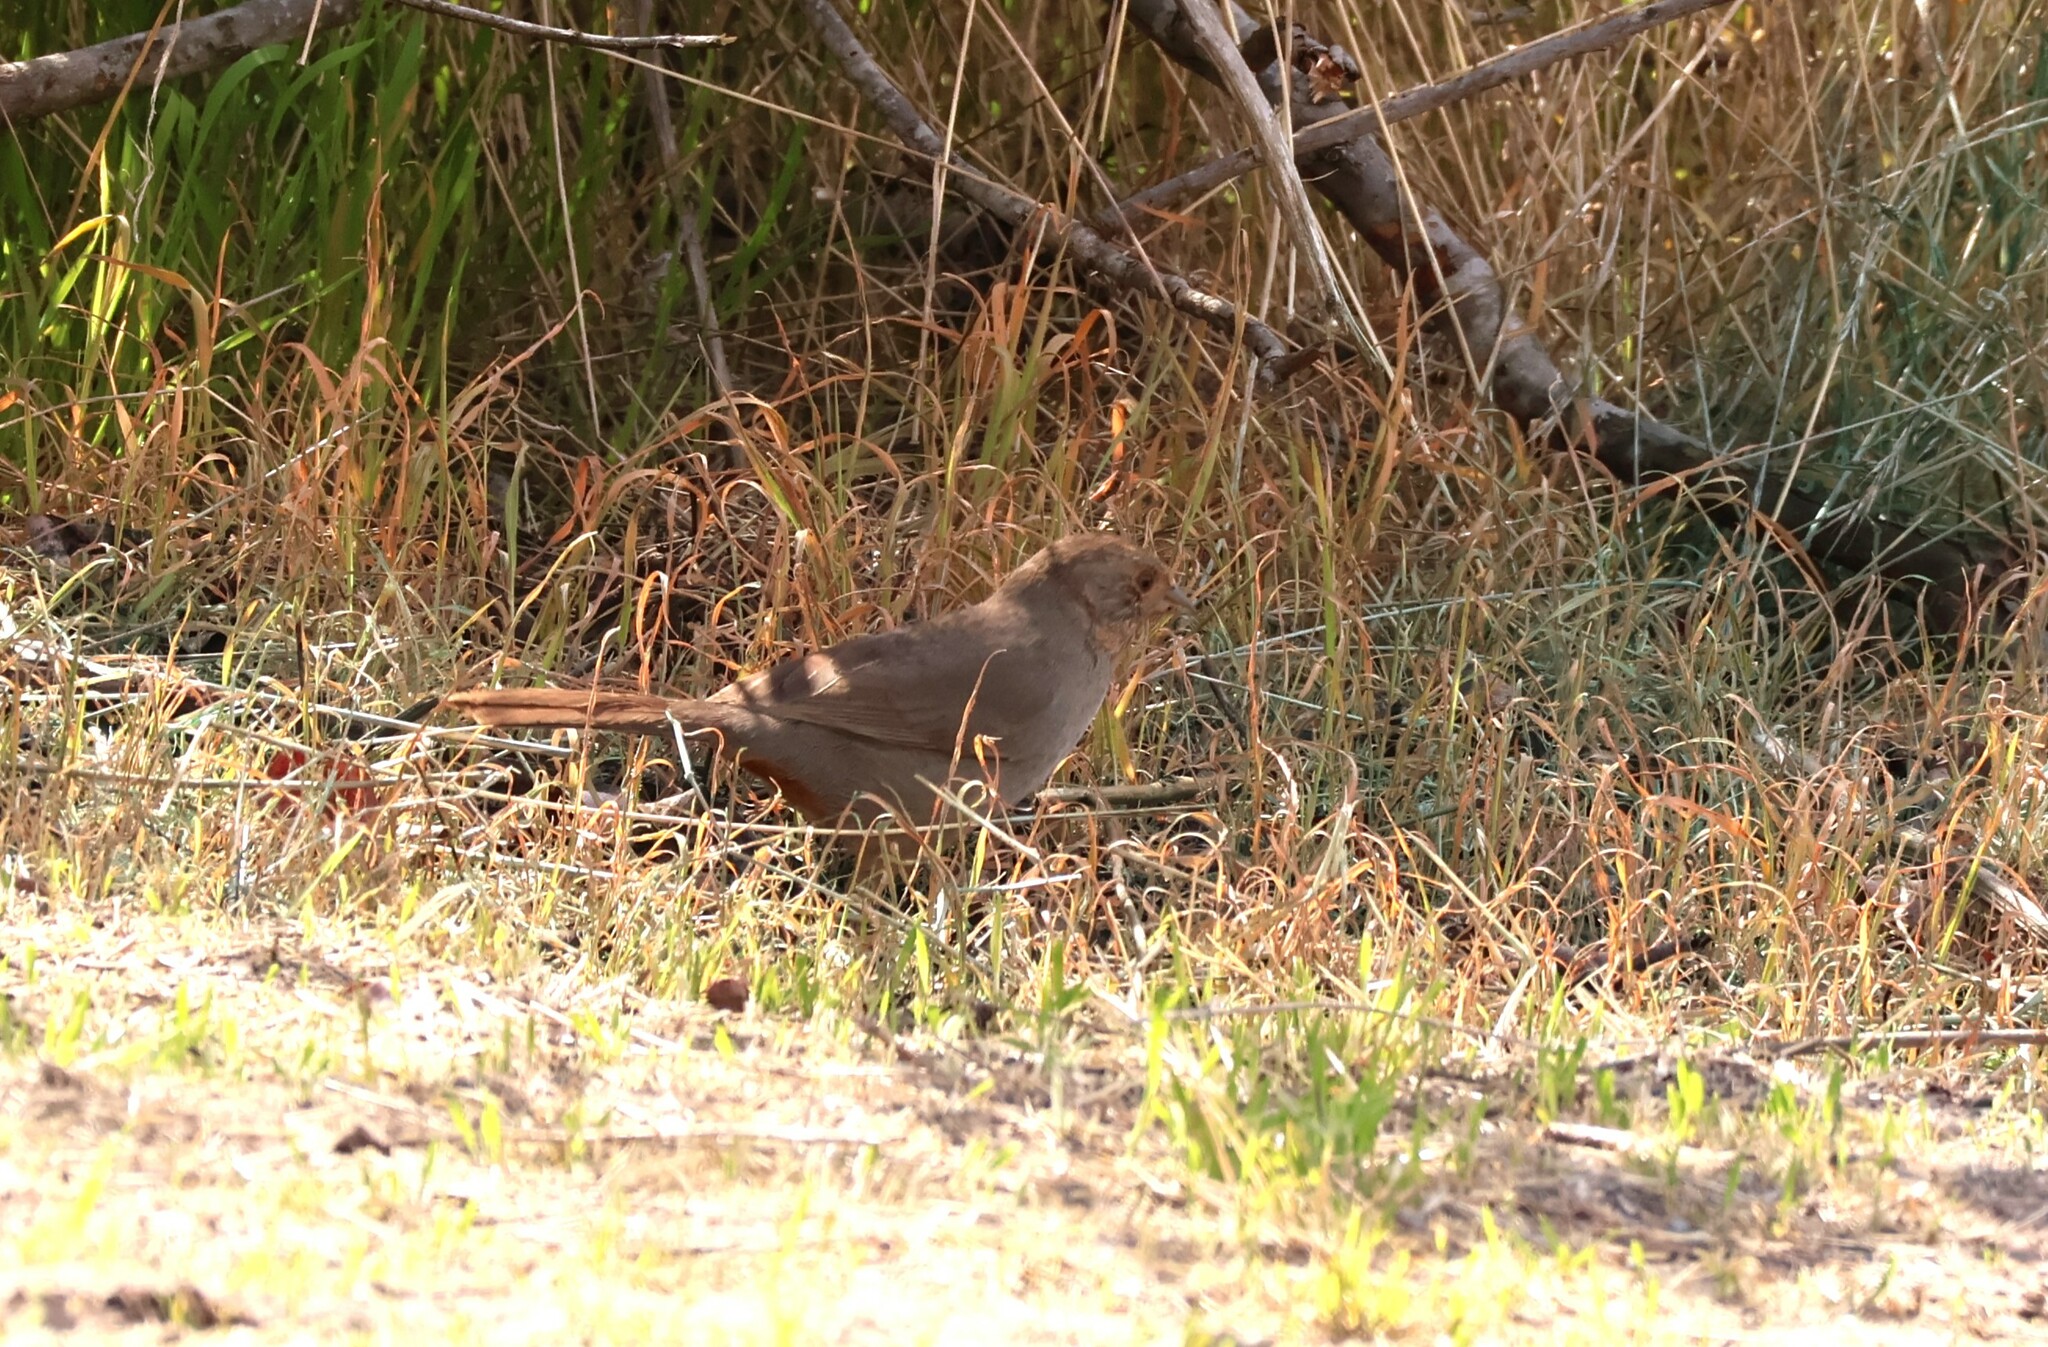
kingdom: Animalia
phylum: Chordata
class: Aves
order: Passeriformes
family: Passerellidae
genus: Melozone
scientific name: Melozone crissalis
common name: California towhee
